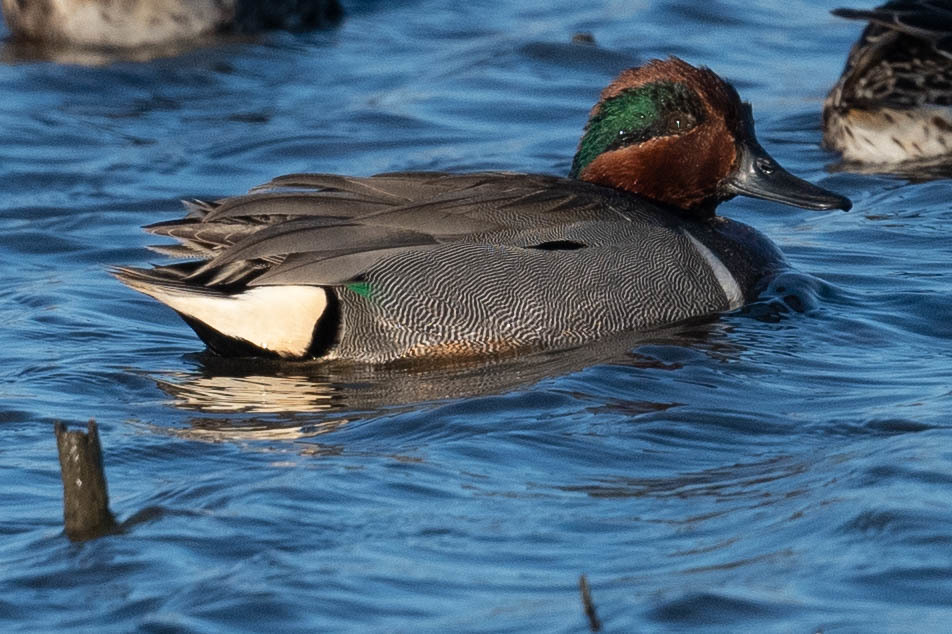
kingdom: Animalia
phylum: Chordata
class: Aves
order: Anseriformes
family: Anatidae
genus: Anas
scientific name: Anas crecca
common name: Eurasian teal
